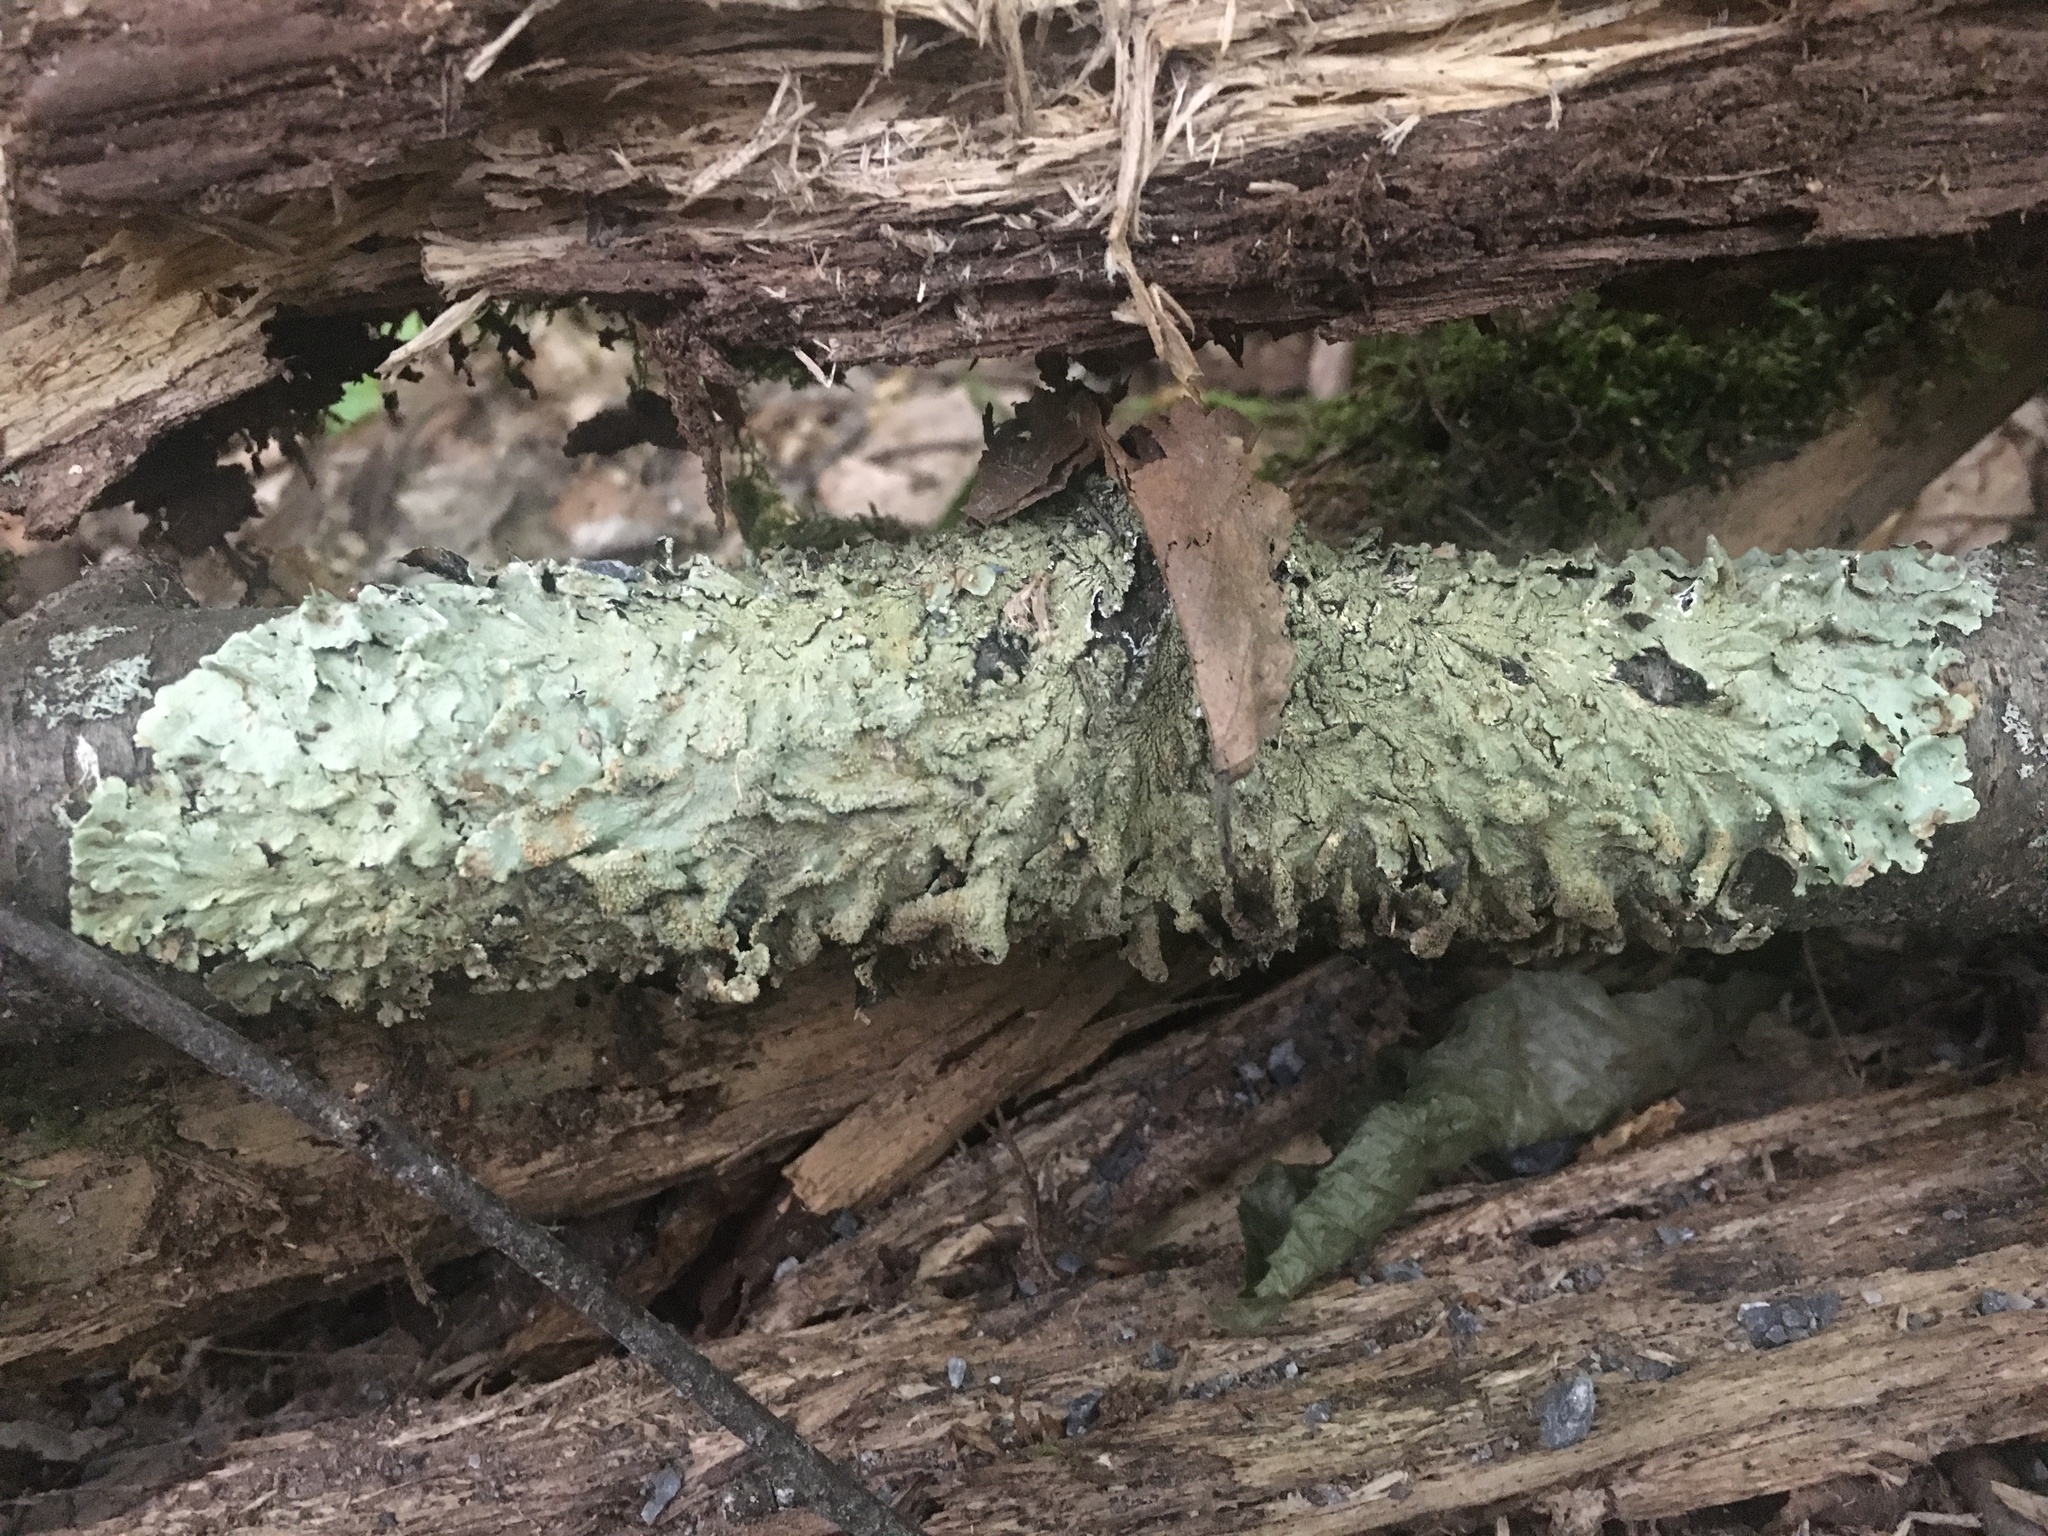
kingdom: Fungi
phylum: Ascomycota
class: Lecanoromycetes
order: Lecanorales
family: Parmeliaceae
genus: Flavoparmelia
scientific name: Flavoparmelia caperata
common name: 40-mile per hour lichen
